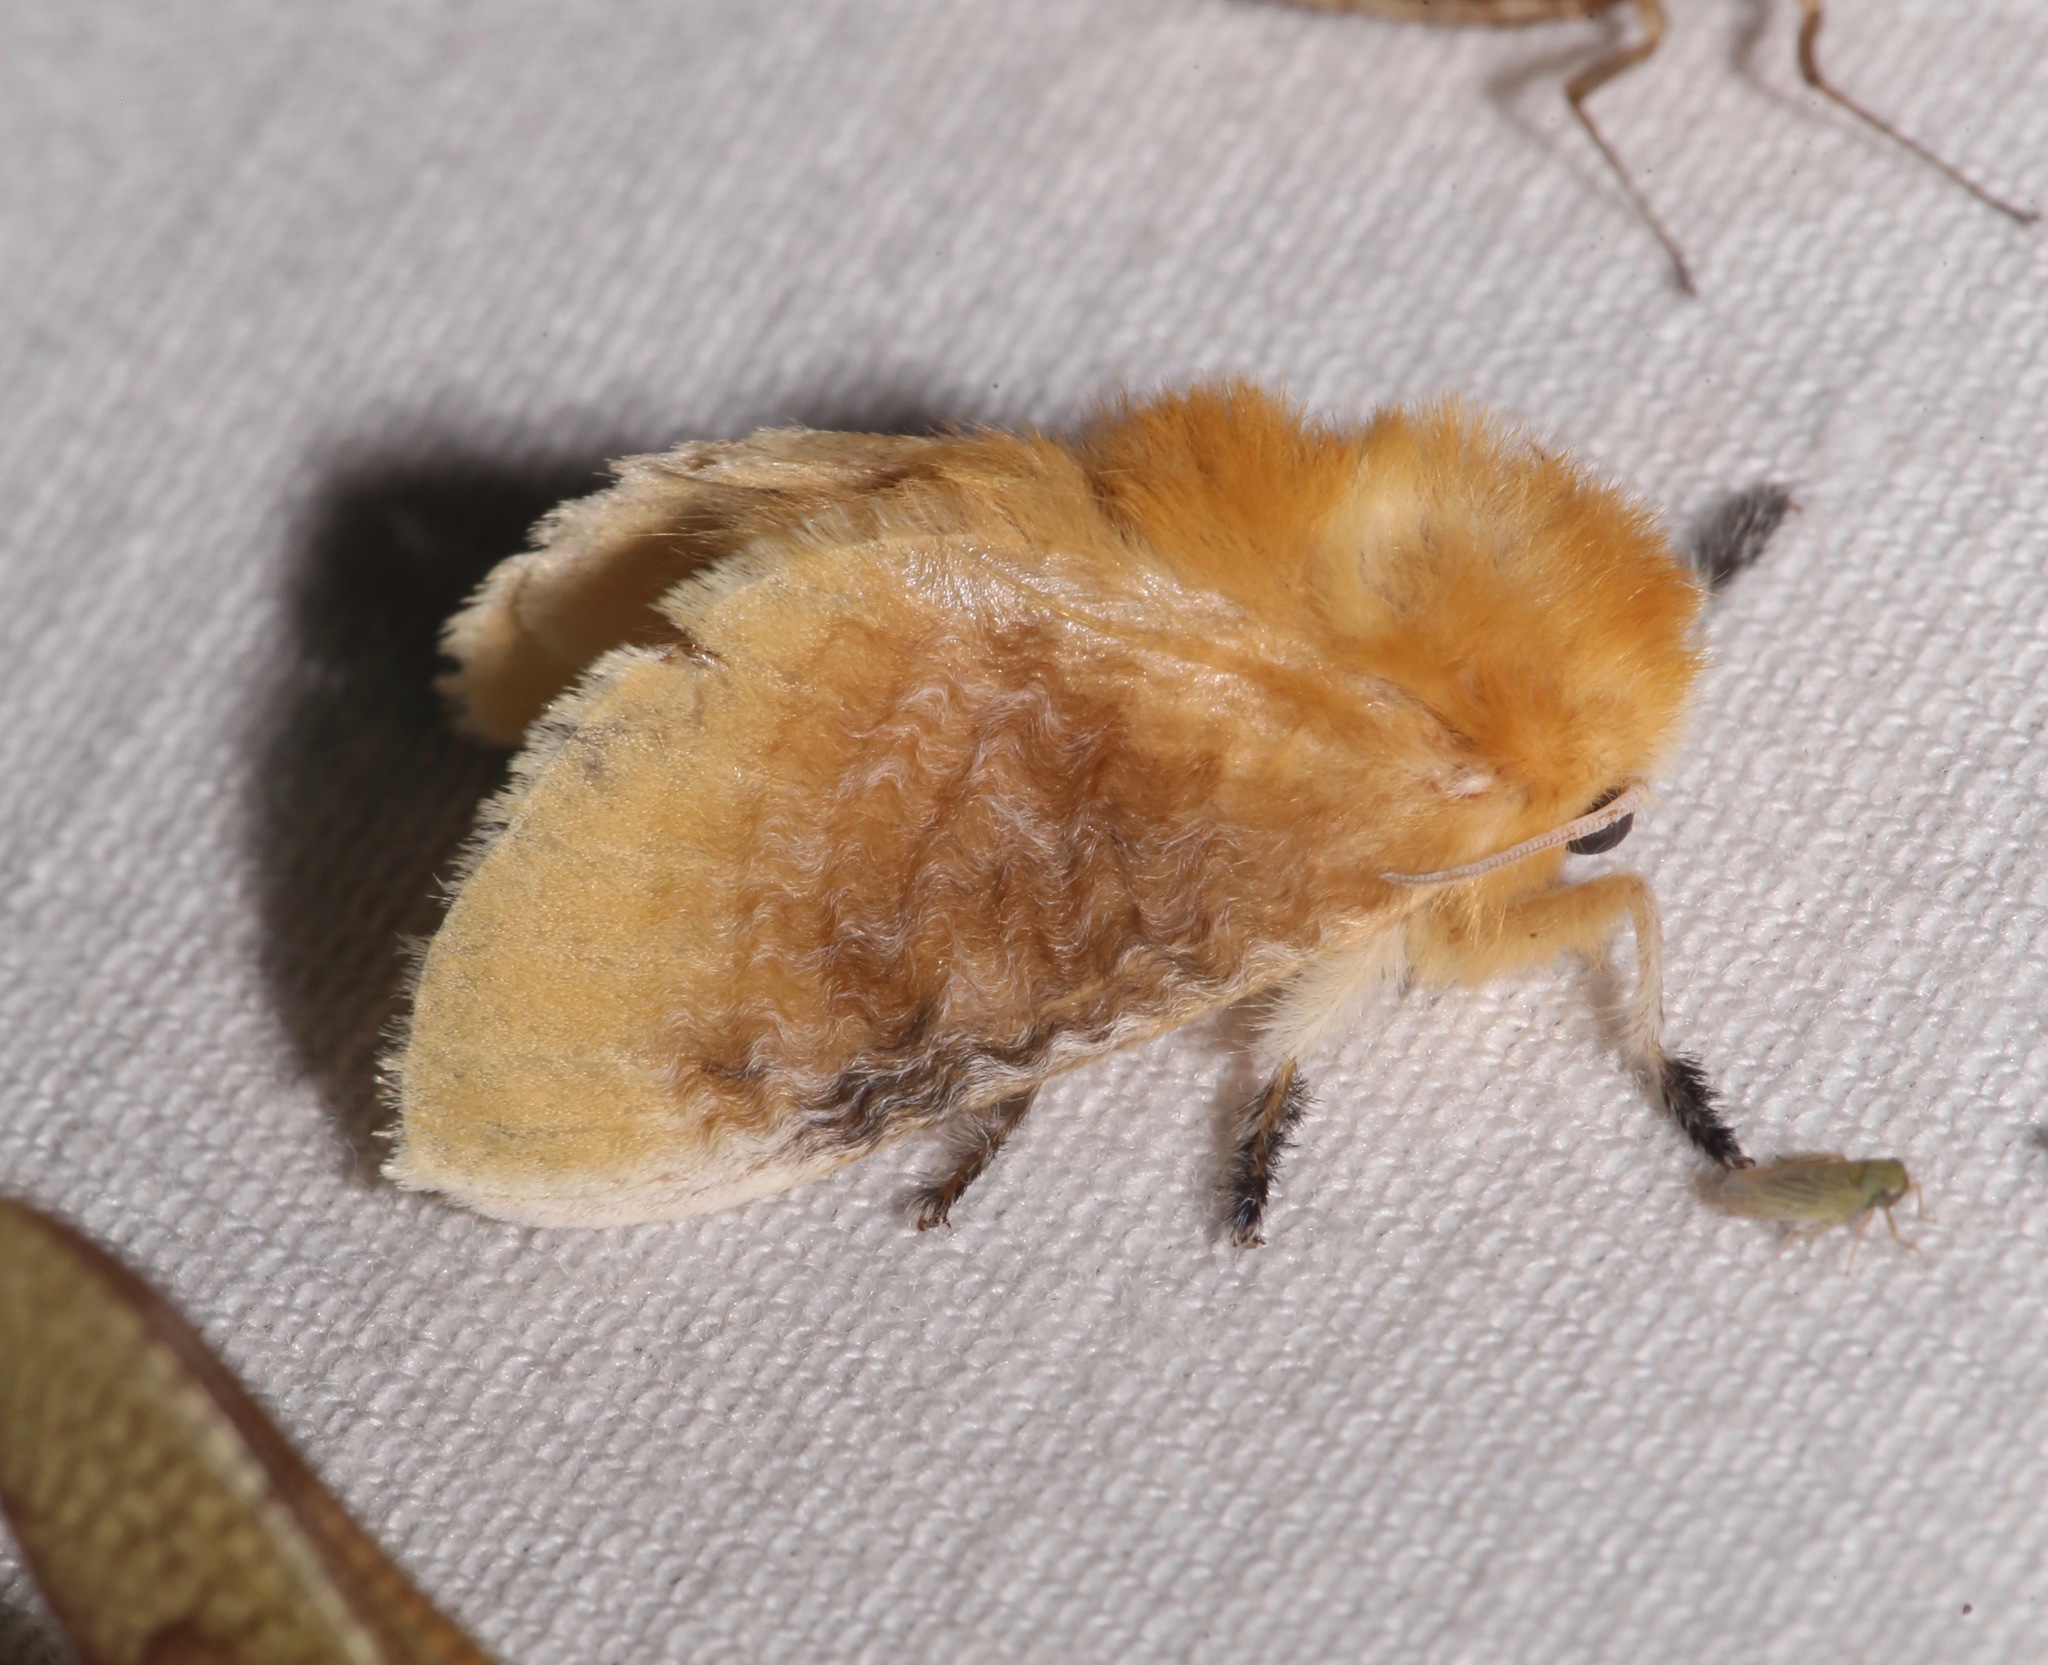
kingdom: Animalia
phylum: Arthropoda
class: Insecta
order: Lepidoptera
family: Megalopygidae
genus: Megalopyge
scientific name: Megalopyge opercularis
